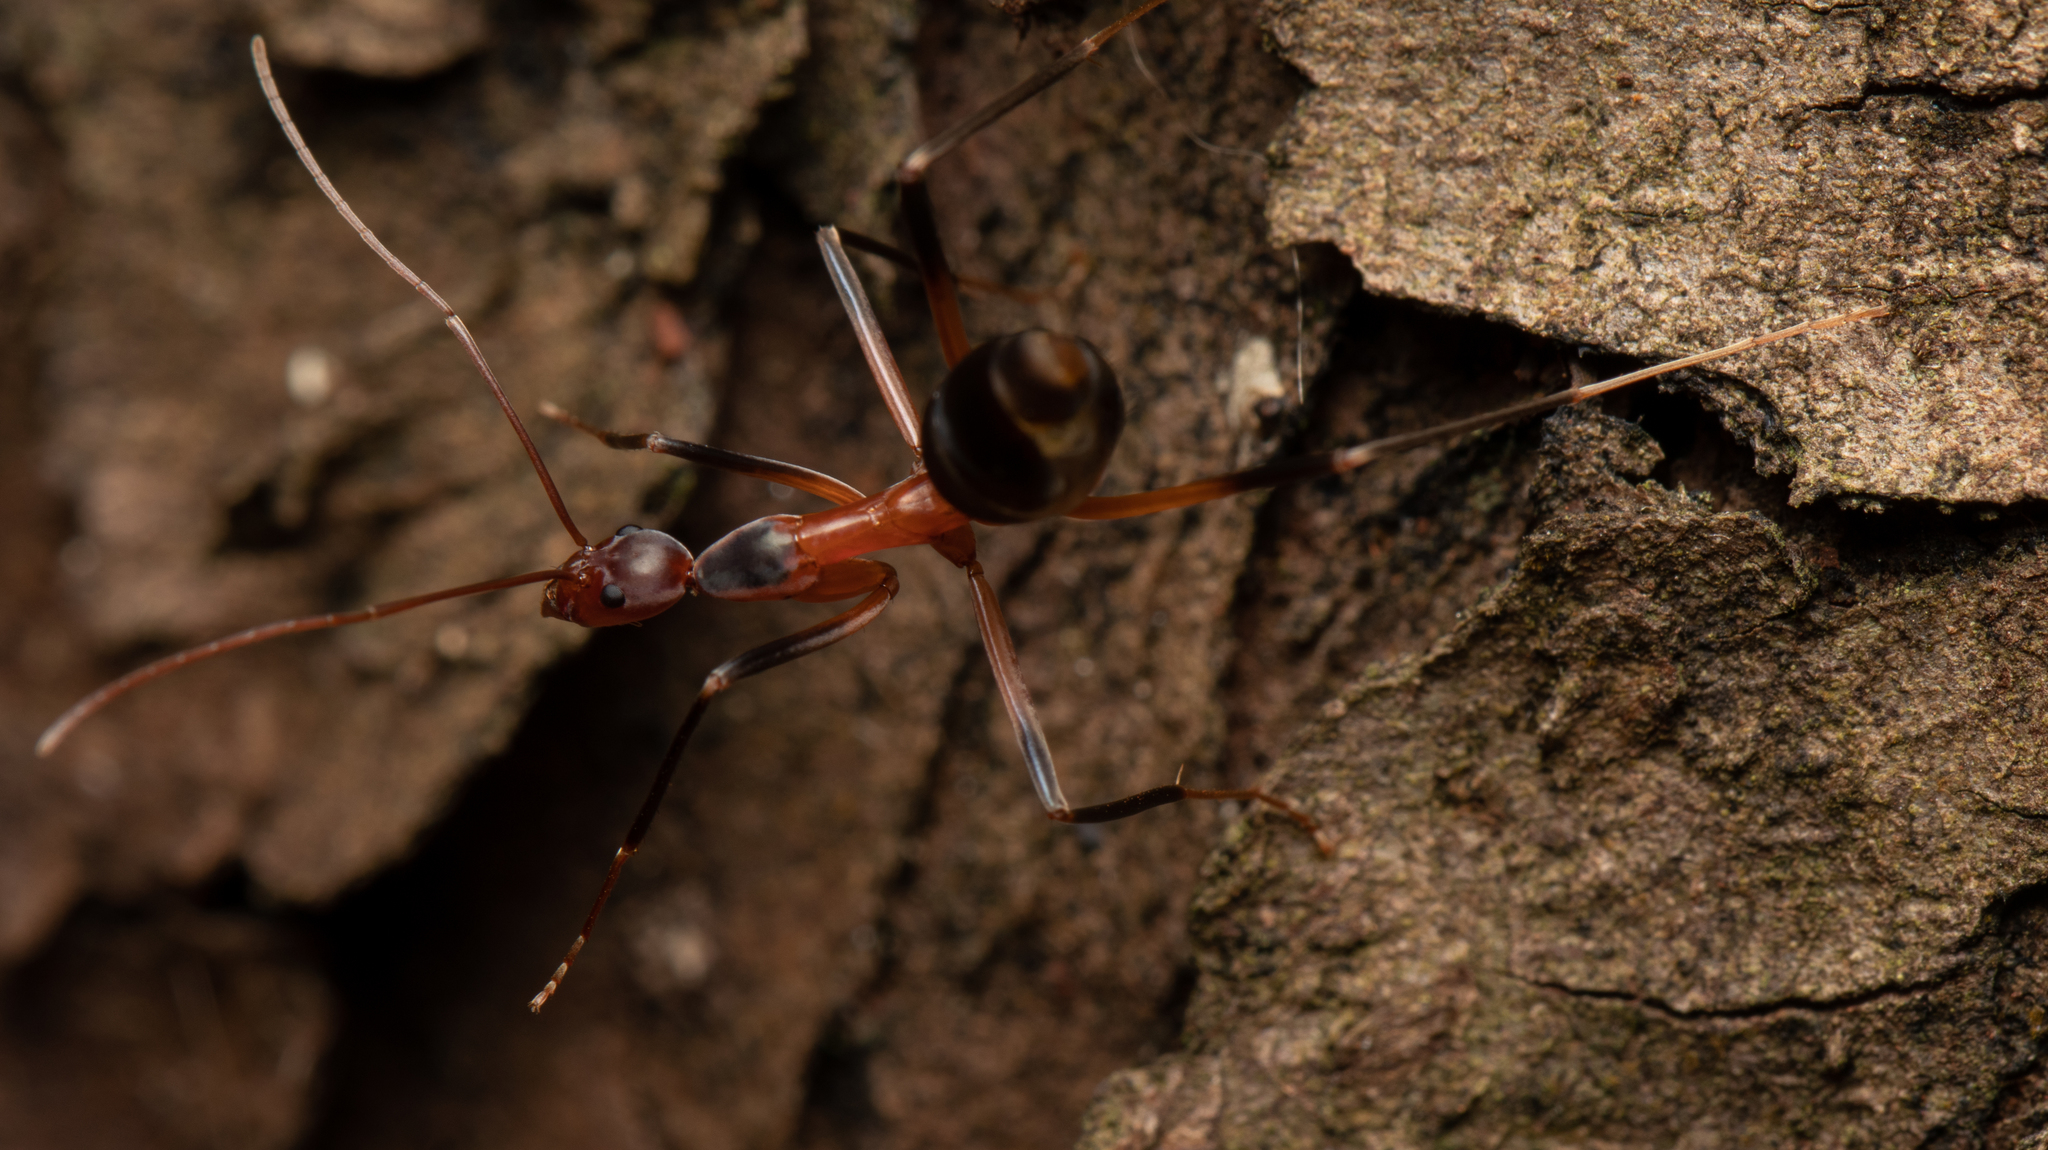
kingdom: Animalia
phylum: Arthropoda
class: Insecta
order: Hymenoptera
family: Formicidae
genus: Leptomyrmex
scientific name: Leptomyrmex cnemidatus
